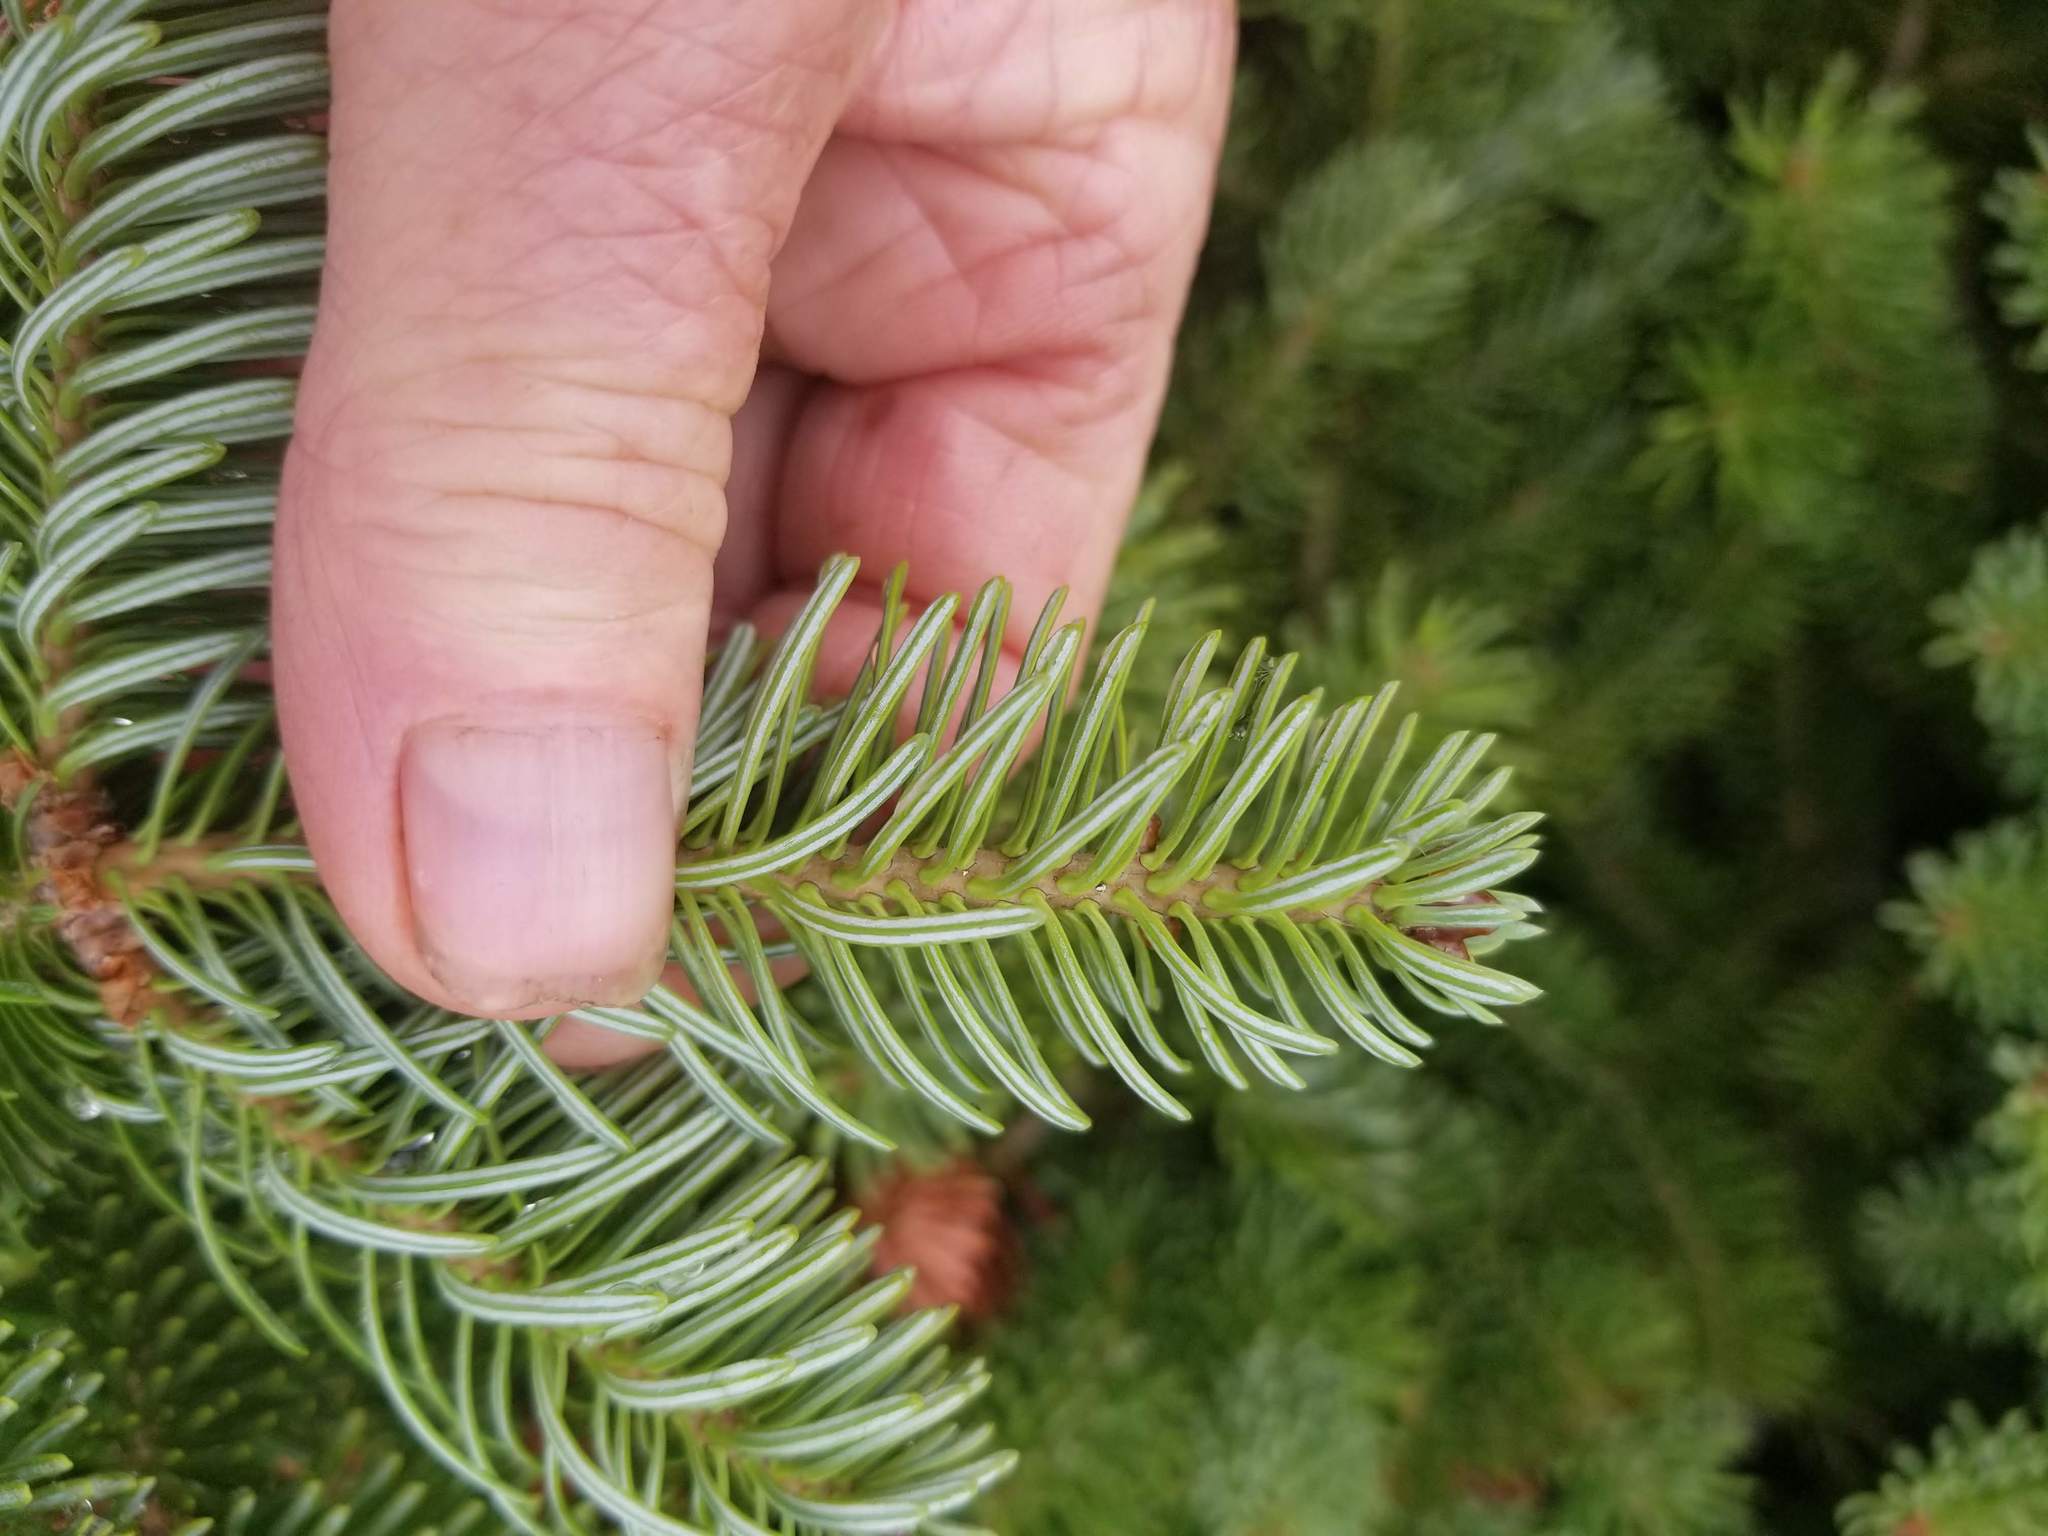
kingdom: Plantae
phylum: Tracheophyta
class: Pinopsida
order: Pinales
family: Pinaceae
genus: Abies
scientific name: Abies balsamea
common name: Balsam fir
